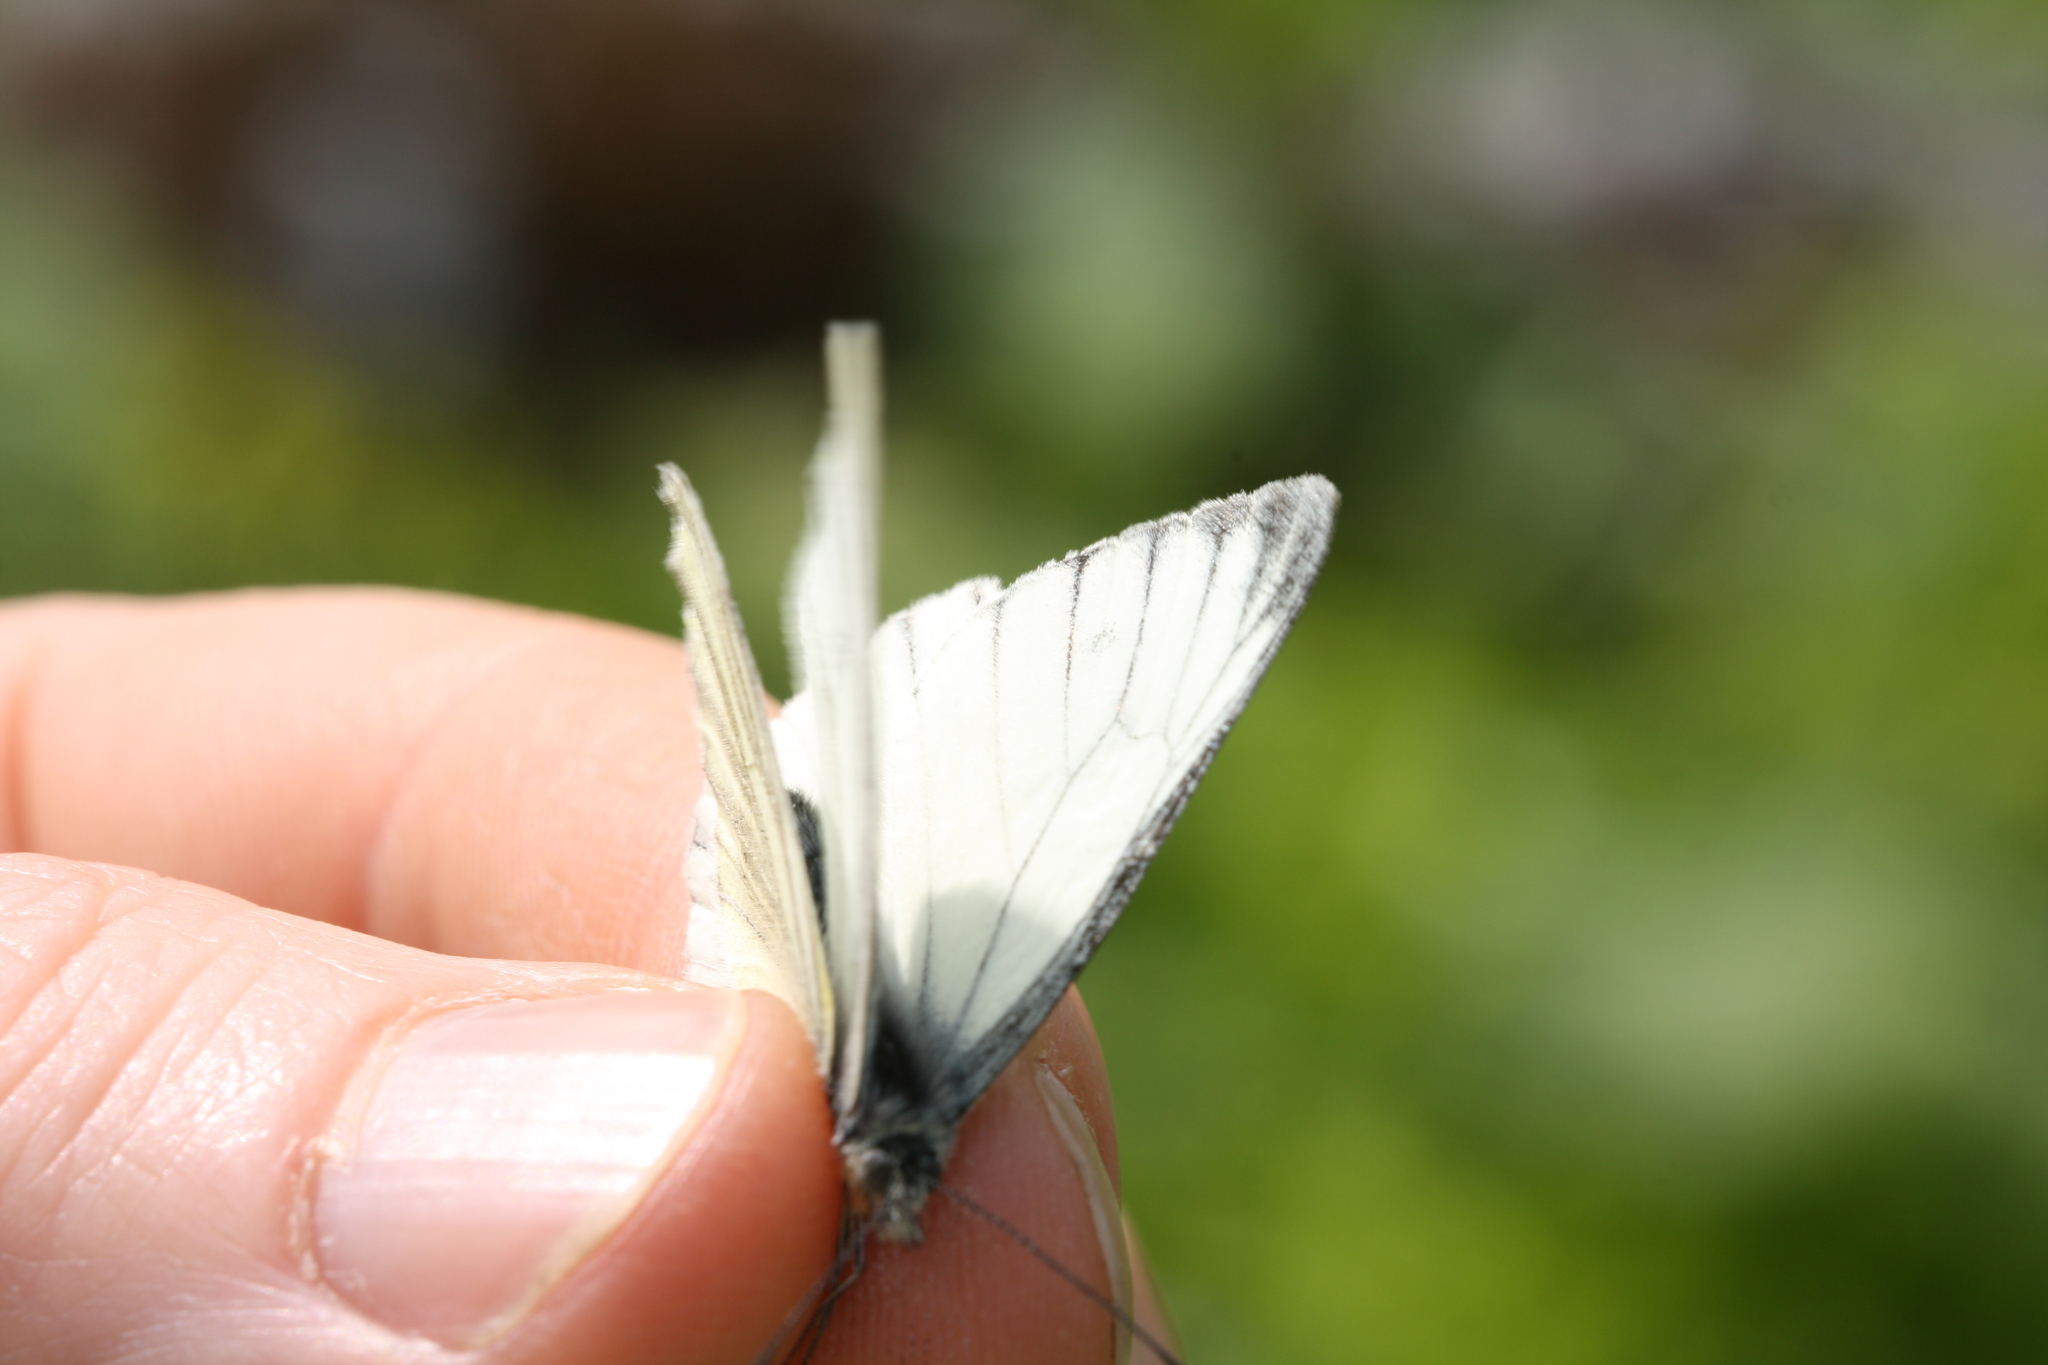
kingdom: Animalia
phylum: Arthropoda
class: Insecta
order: Lepidoptera
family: Pieridae
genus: Pieris
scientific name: Pieris bryoniae
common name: Mountain green-veined white
